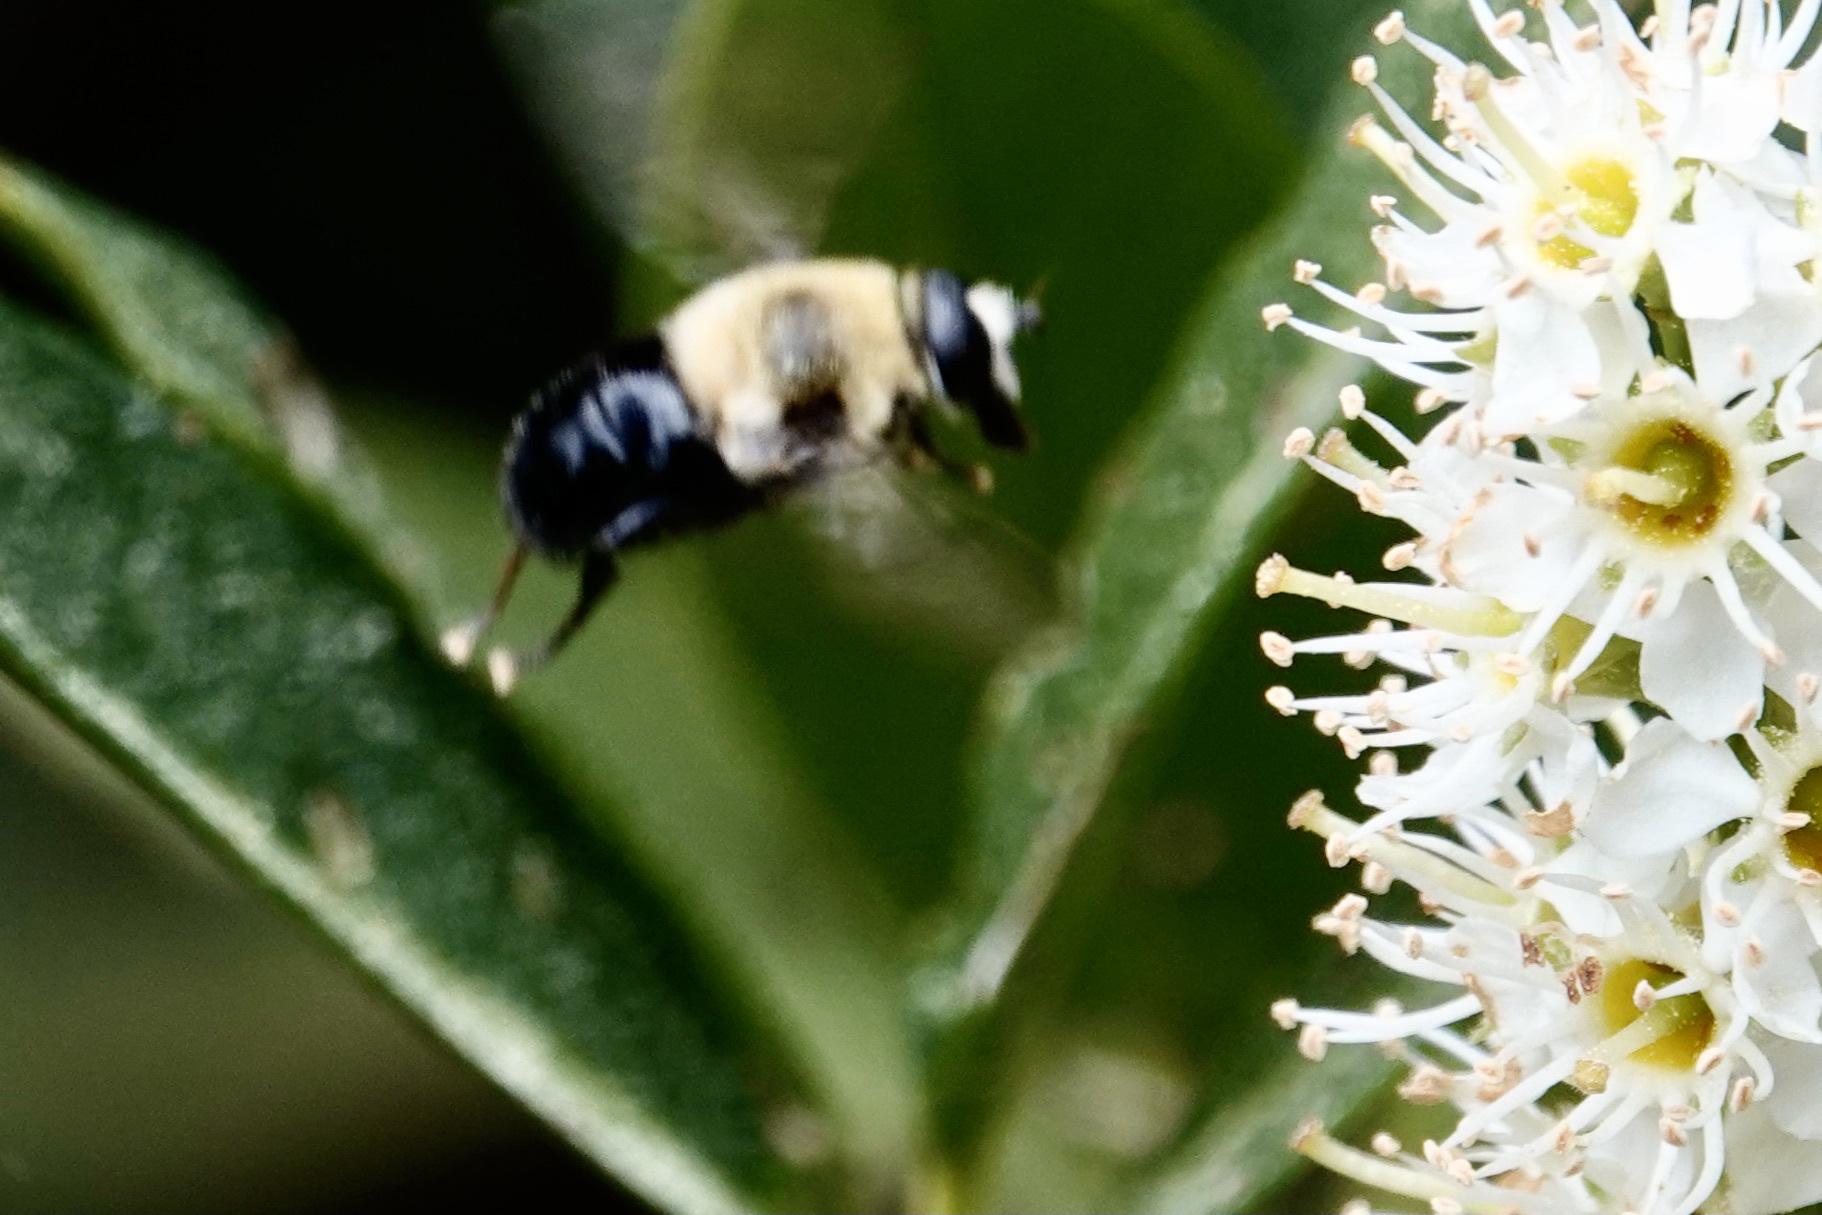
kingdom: Animalia
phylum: Arthropoda
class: Insecta
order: Diptera
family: Syrphidae
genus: Imatisma
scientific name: Imatisma bautias
